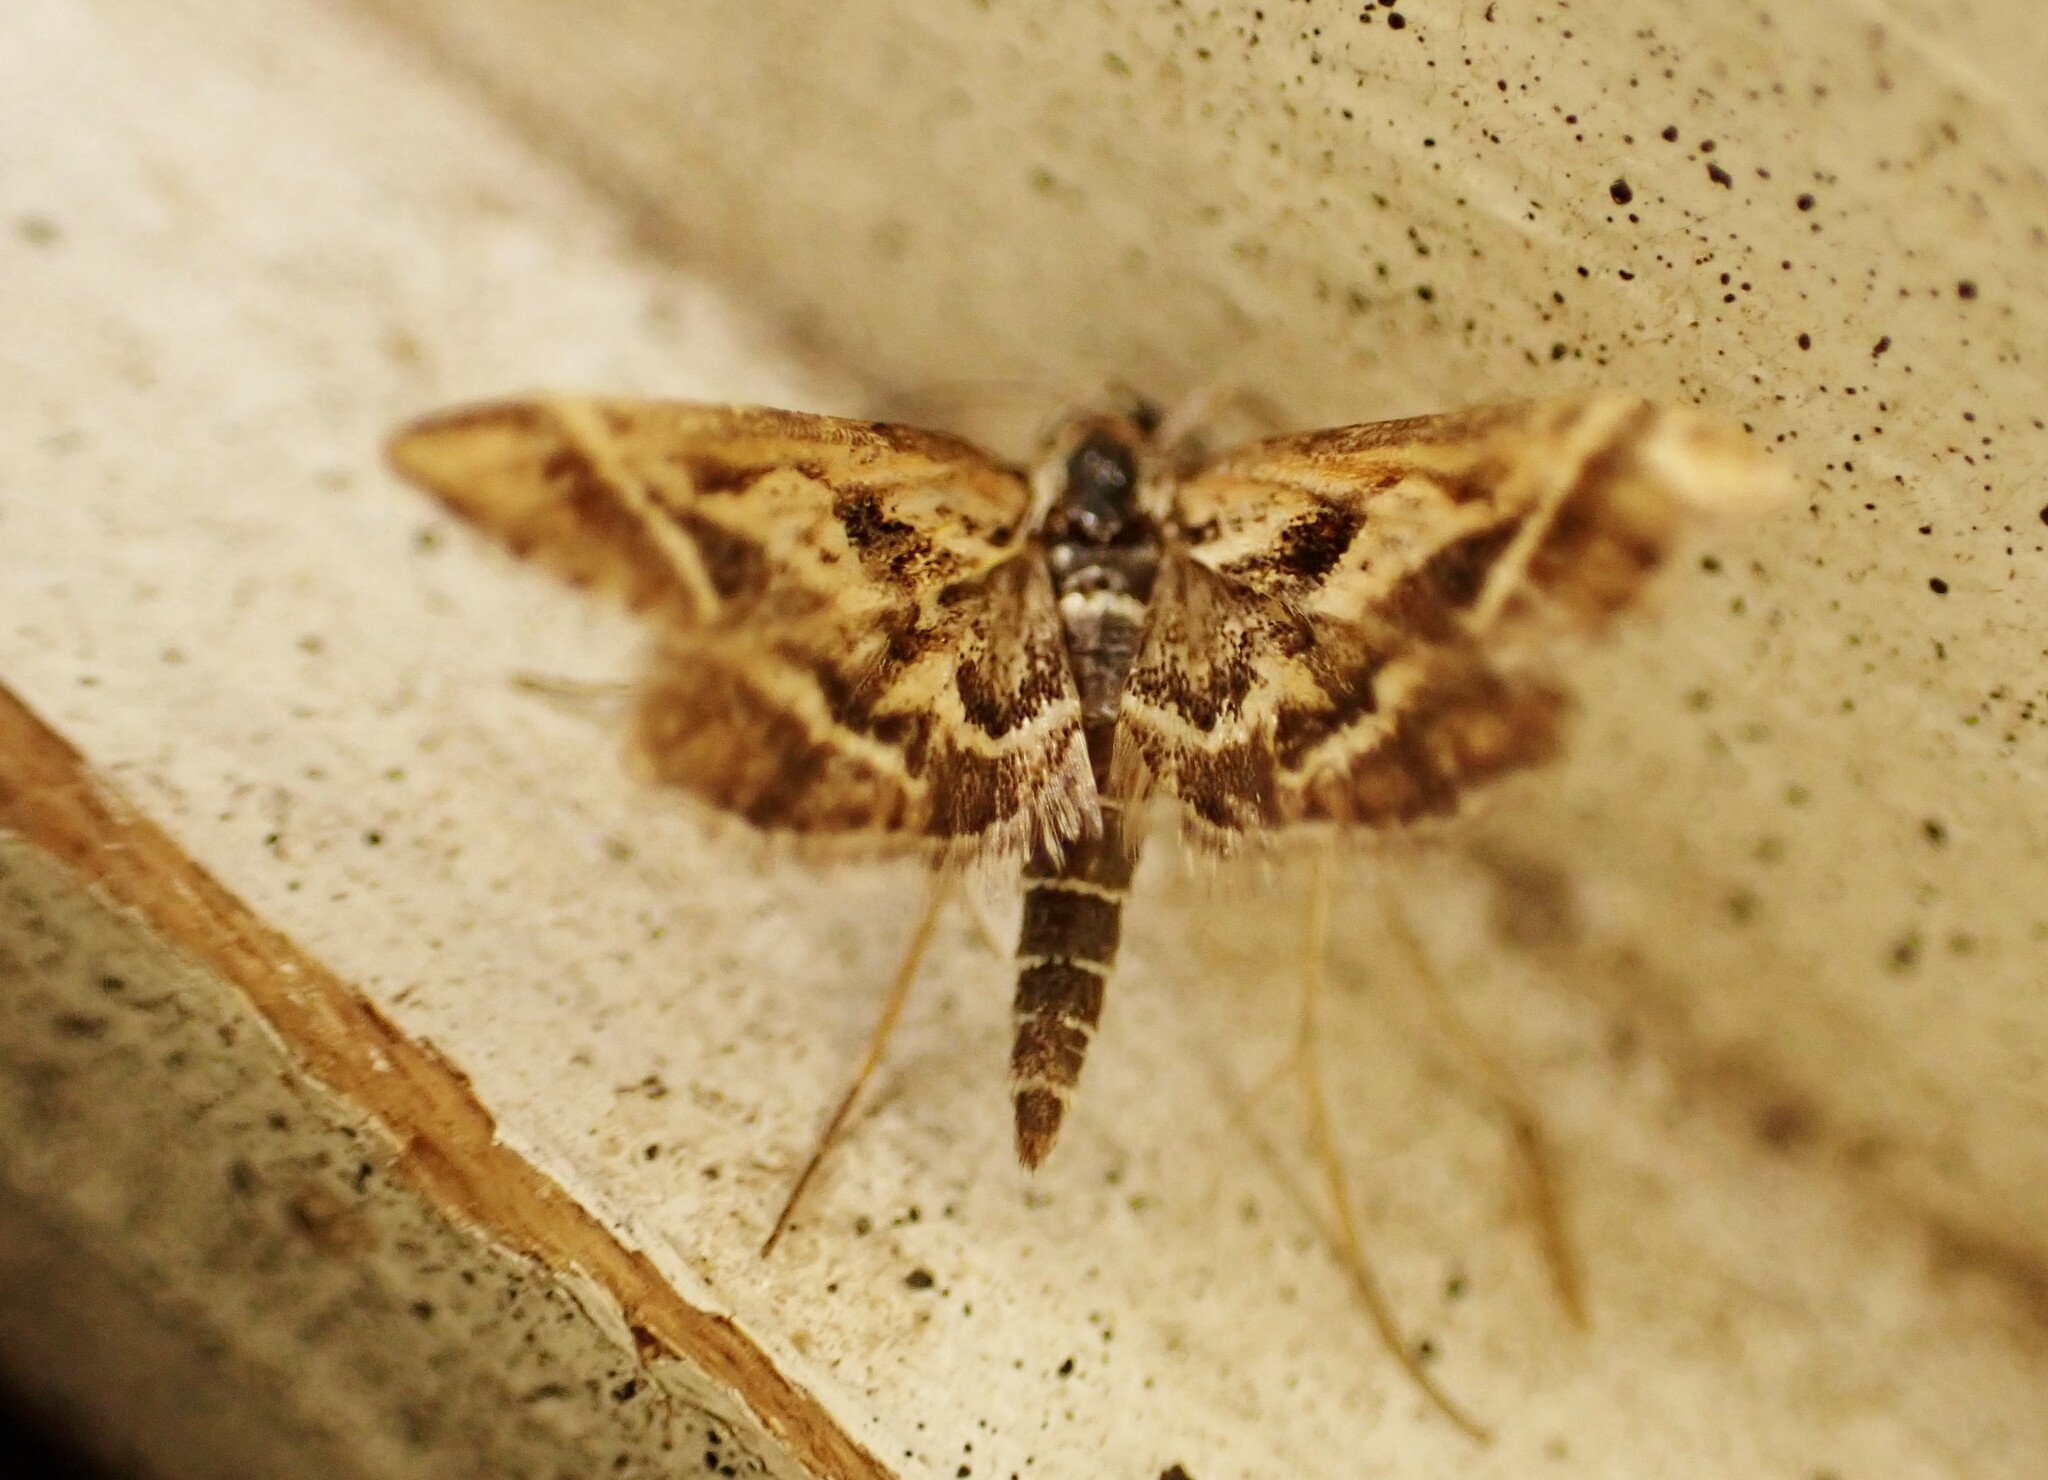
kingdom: Animalia
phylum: Arthropoda
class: Insecta
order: Lepidoptera
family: Crambidae
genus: Diasemia
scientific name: Diasemia grammalis
